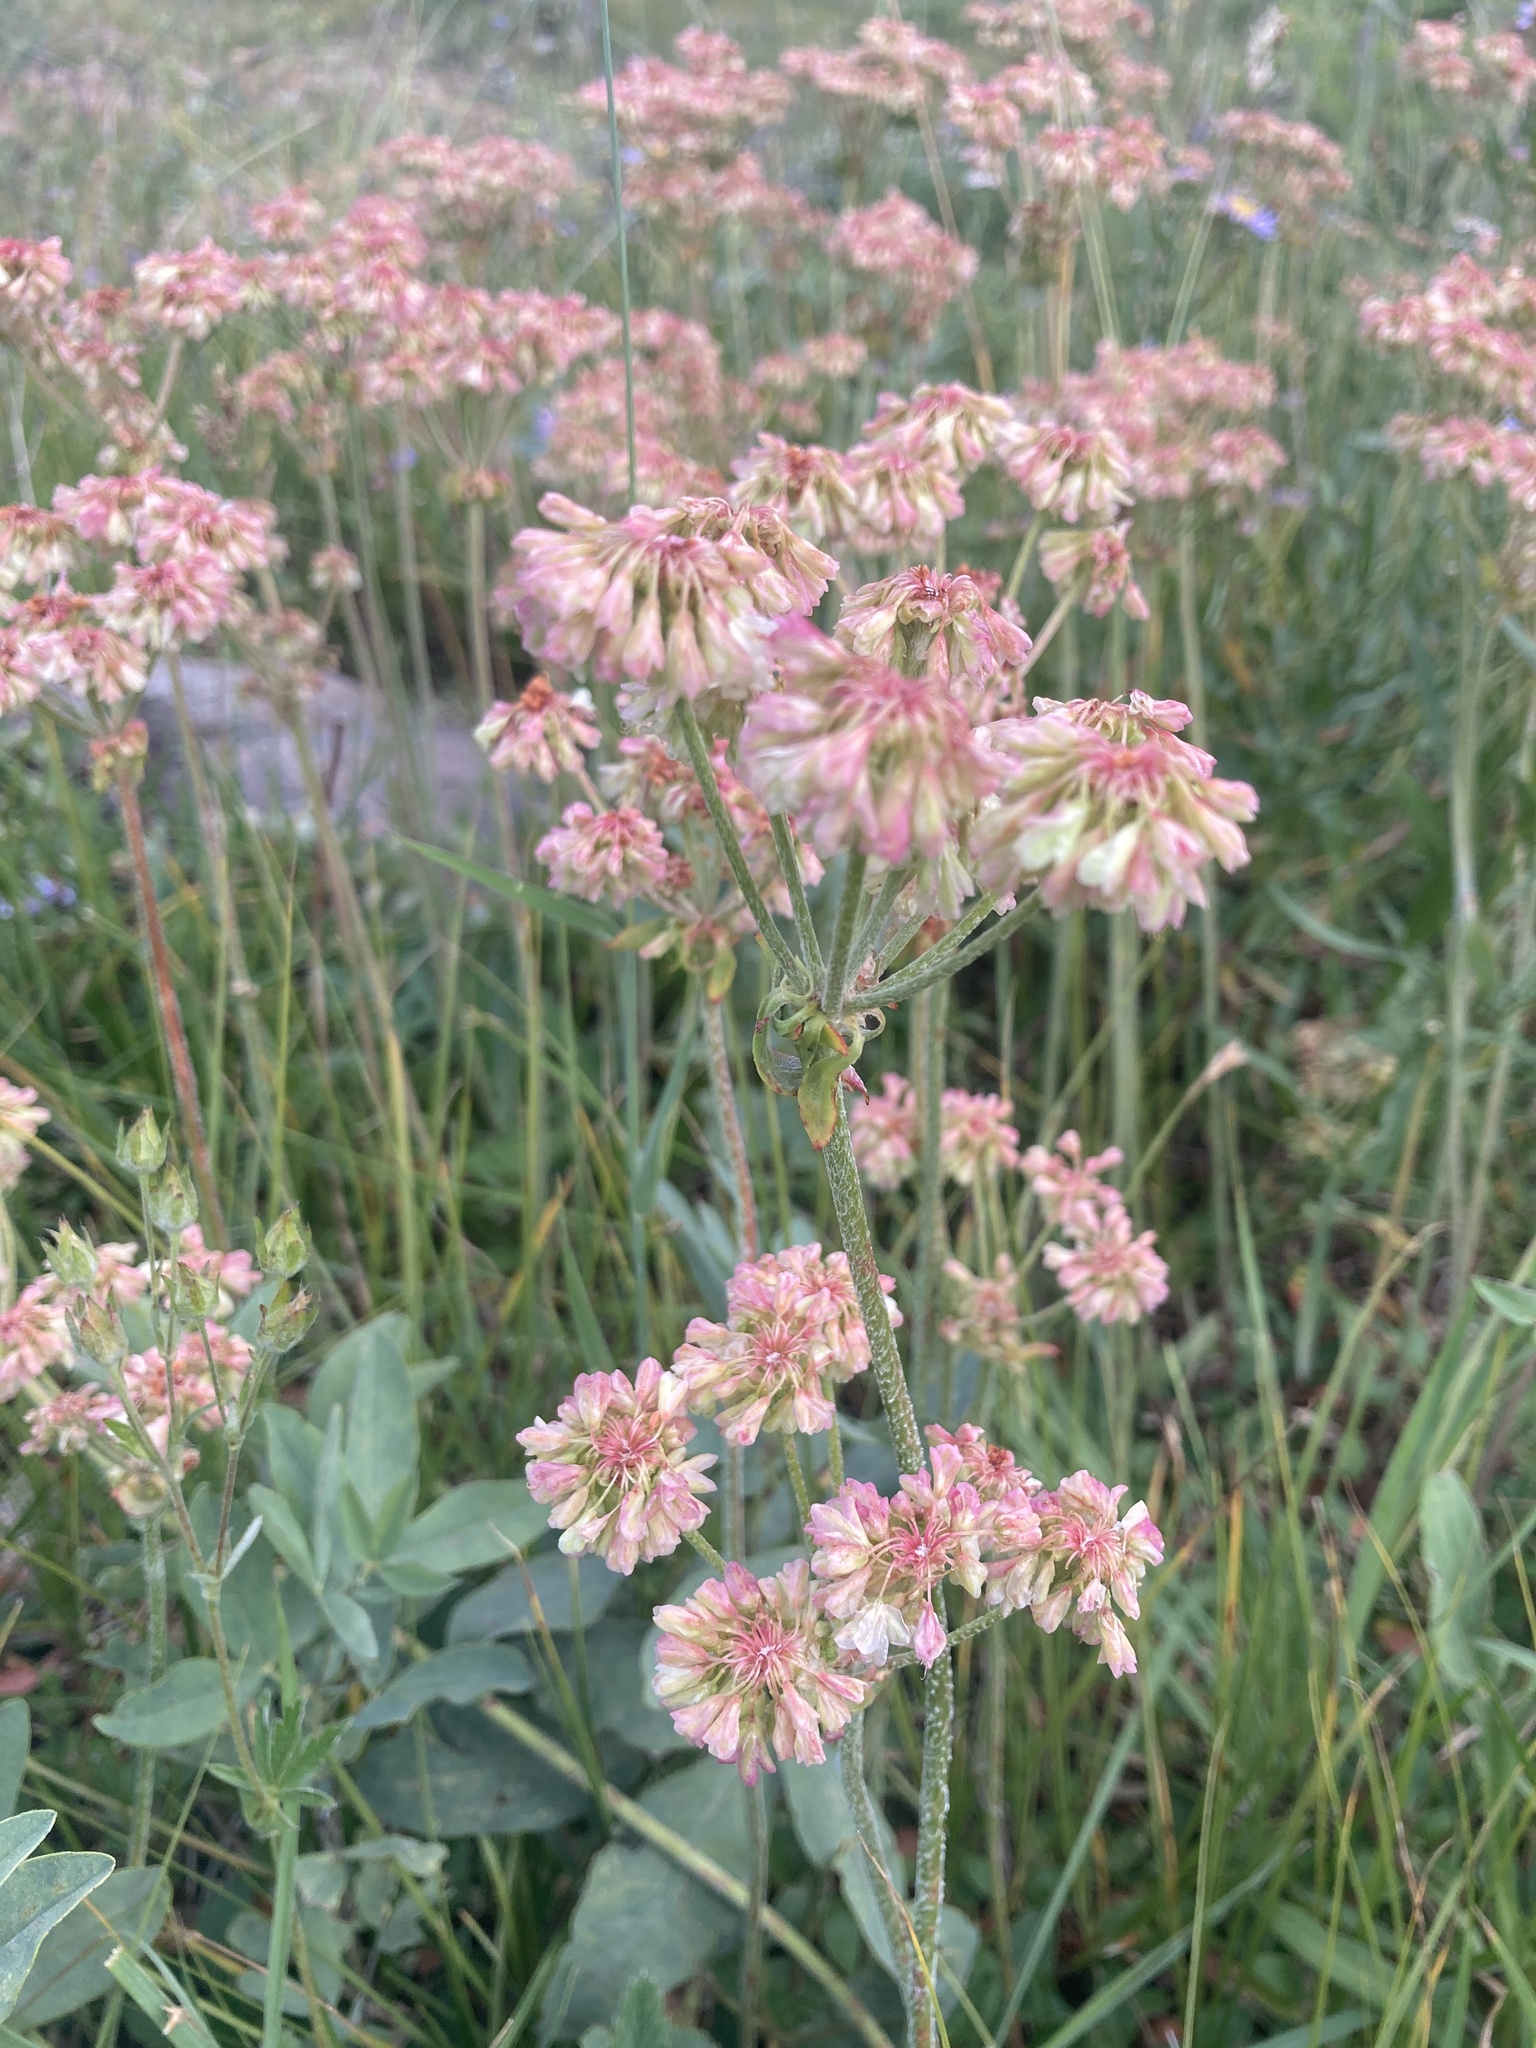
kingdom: Plantae
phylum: Tracheophyta
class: Magnoliopsida
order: Caryophyllales
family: Polygonaceae
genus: Eriogonum
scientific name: Eriogonum umbellatum
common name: Sulfur-buckwheat
